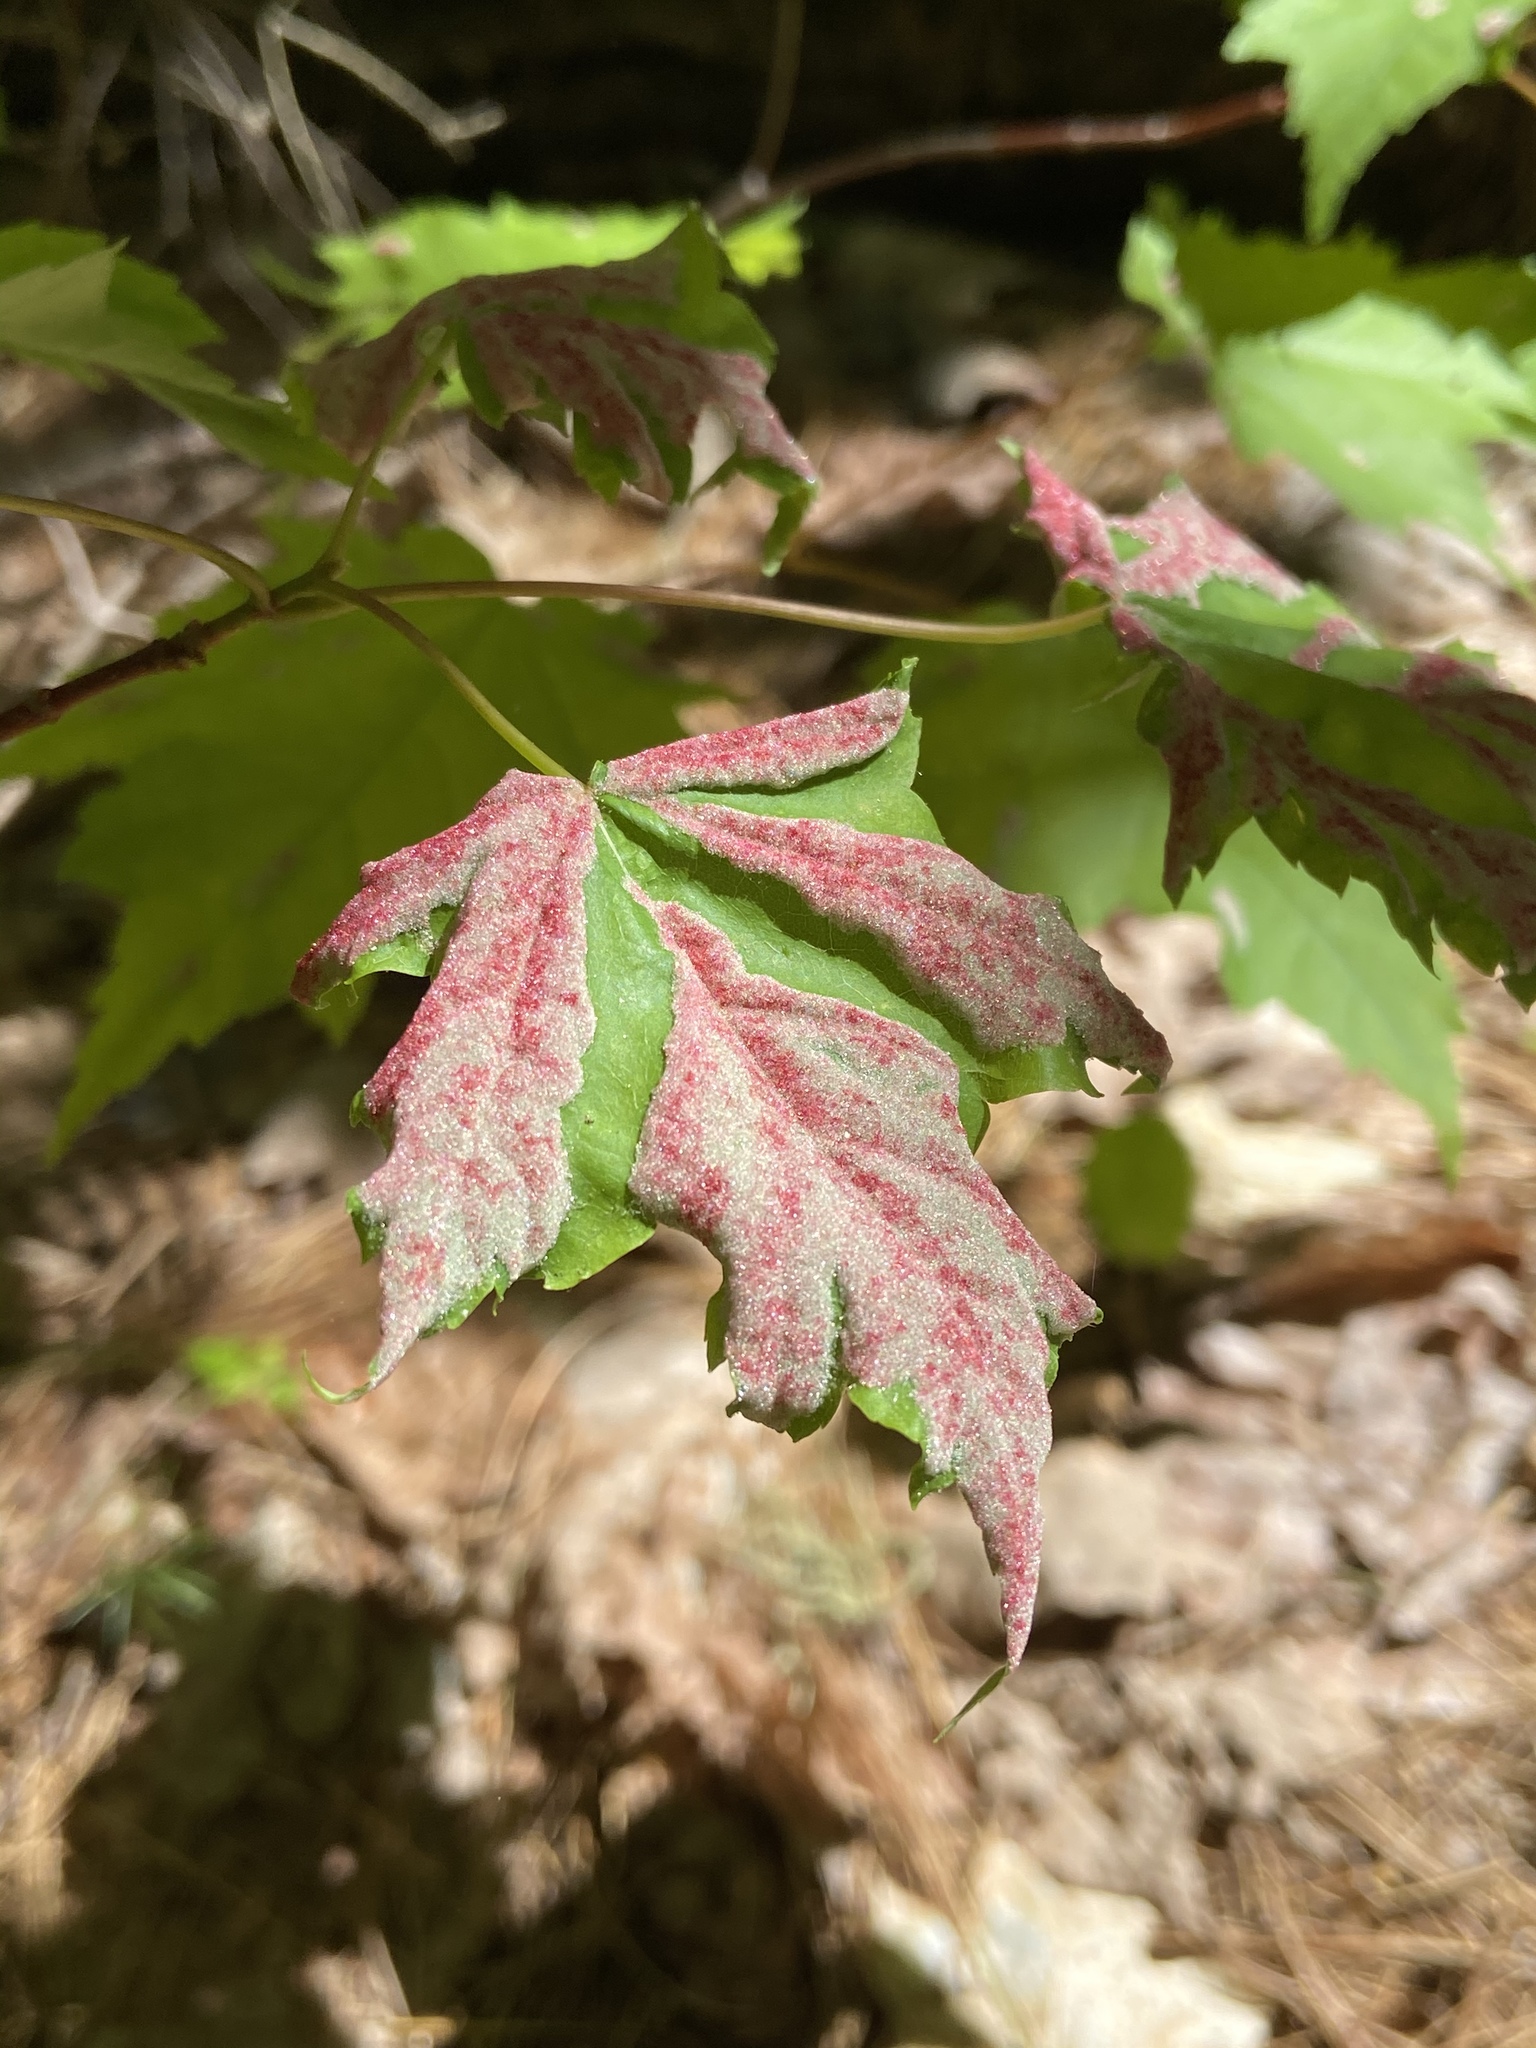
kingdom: Animalia
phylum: Arthropoda
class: Arachnida
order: Trombidiformes
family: Eriophyidae
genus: Aculus
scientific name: Aculus
